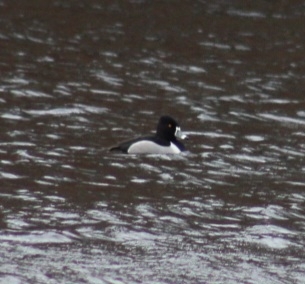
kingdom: Animalia
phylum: Chordata
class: Aves
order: Anseriformes
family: Anatidae
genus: Aythya
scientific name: Aythya collaris
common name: Ring-necked duck
